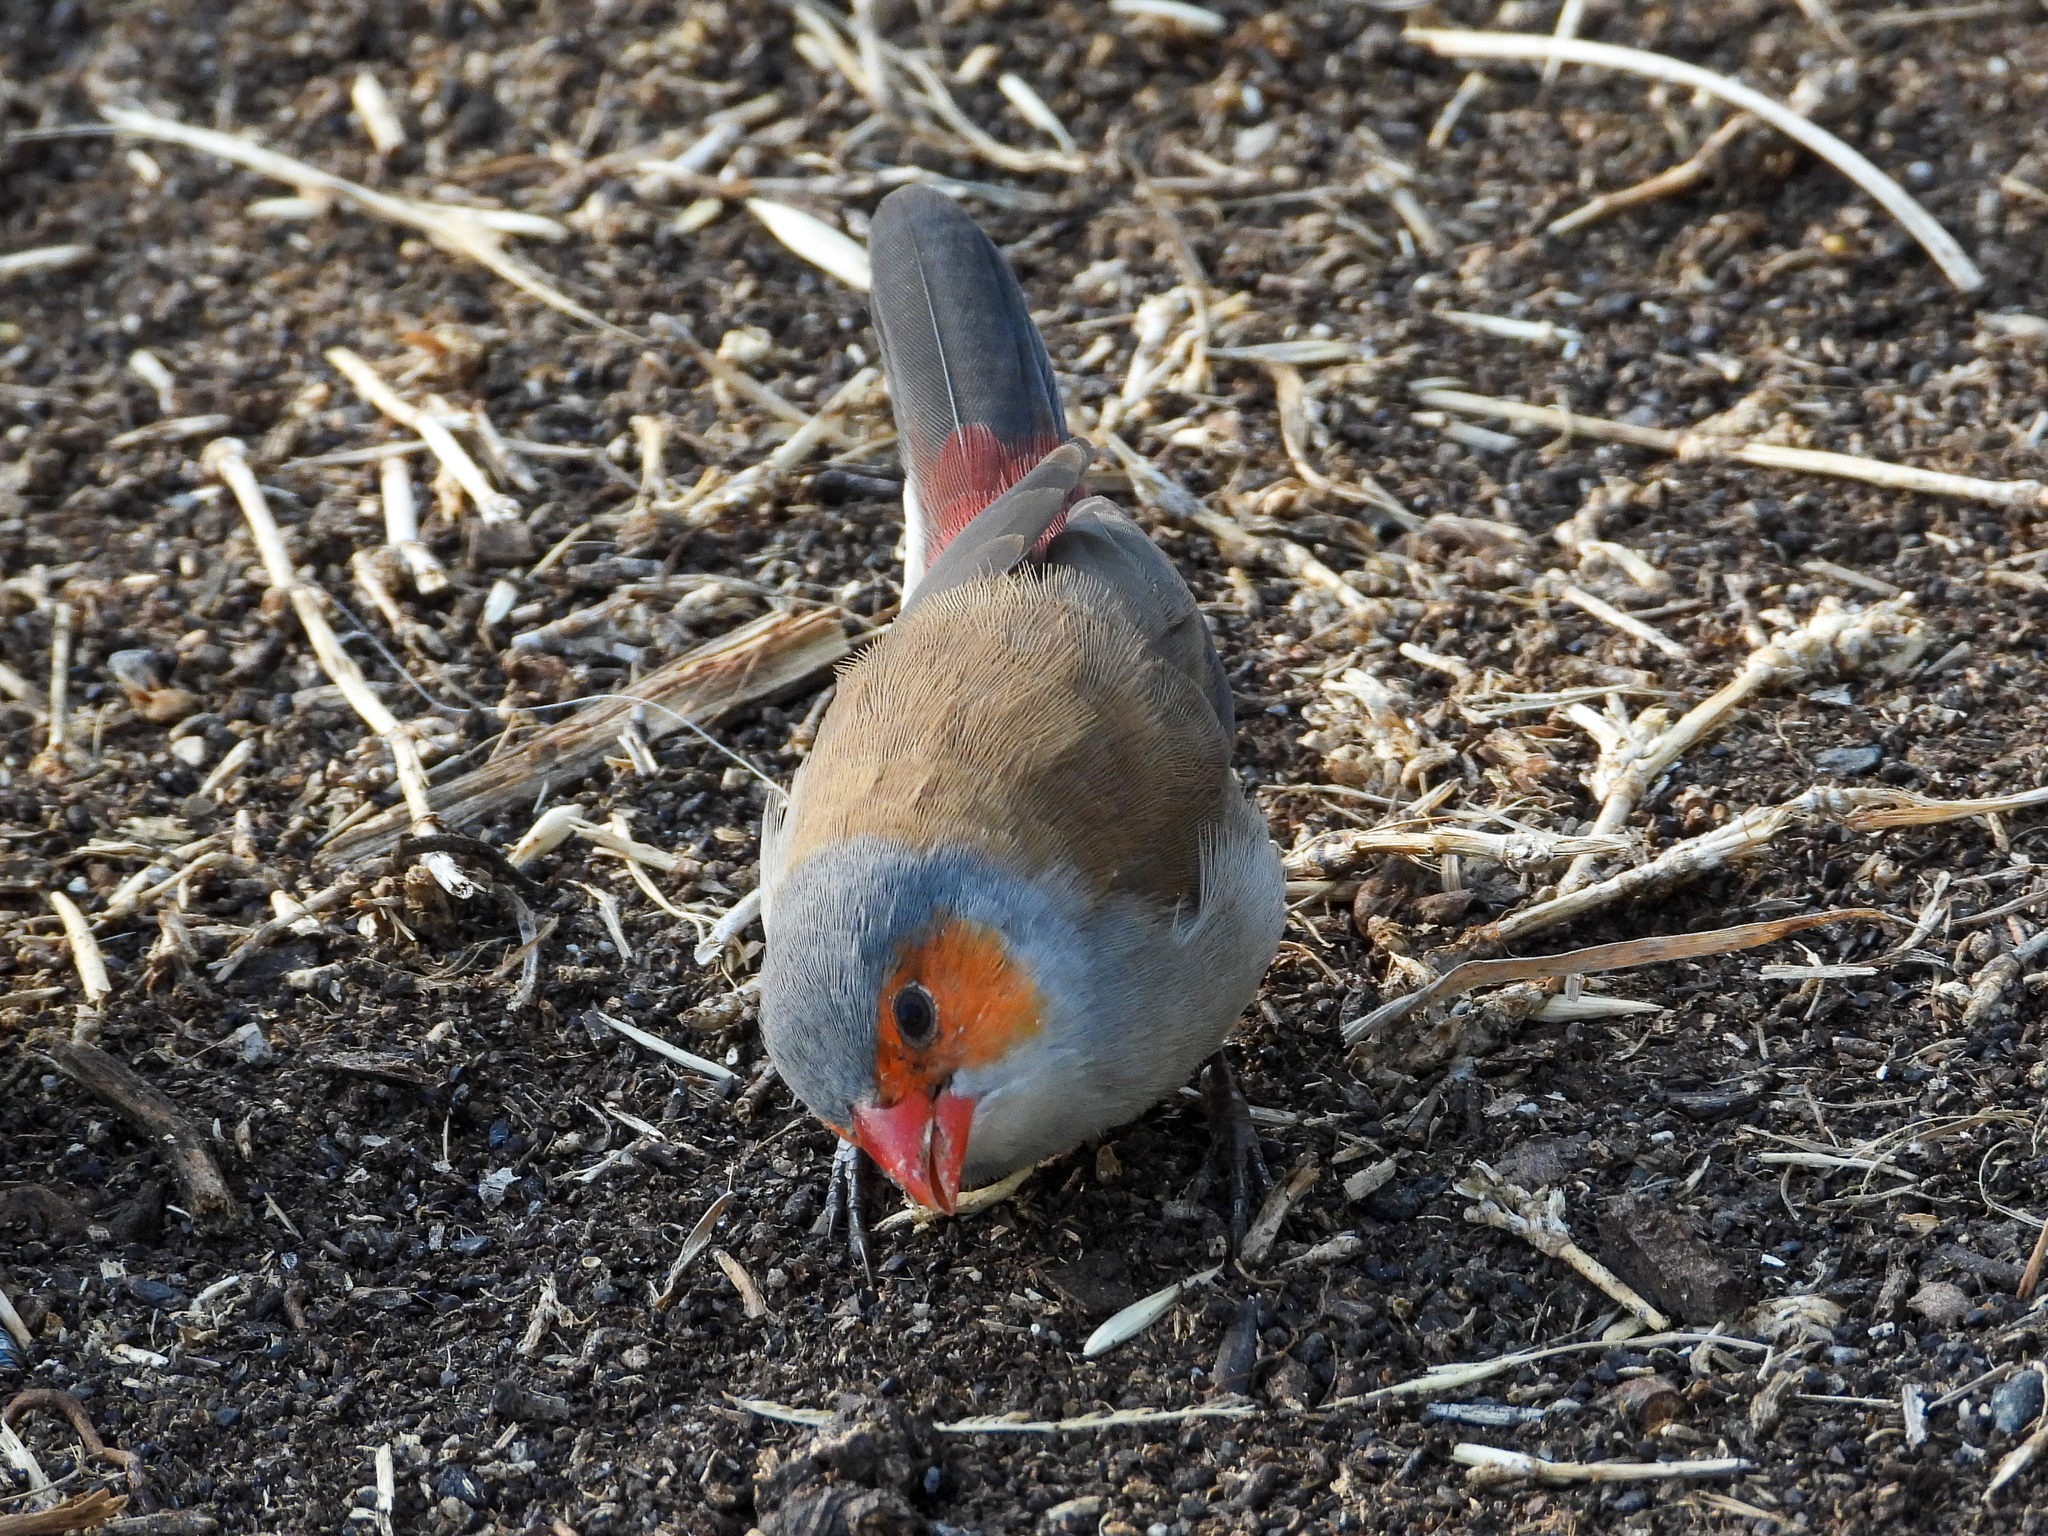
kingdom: Animalia
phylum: Chordata
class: Aves
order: Passeriformes
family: Estrildidae
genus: Estrilda
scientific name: Estrilda melpoda
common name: Orange-cheeked waxbill
